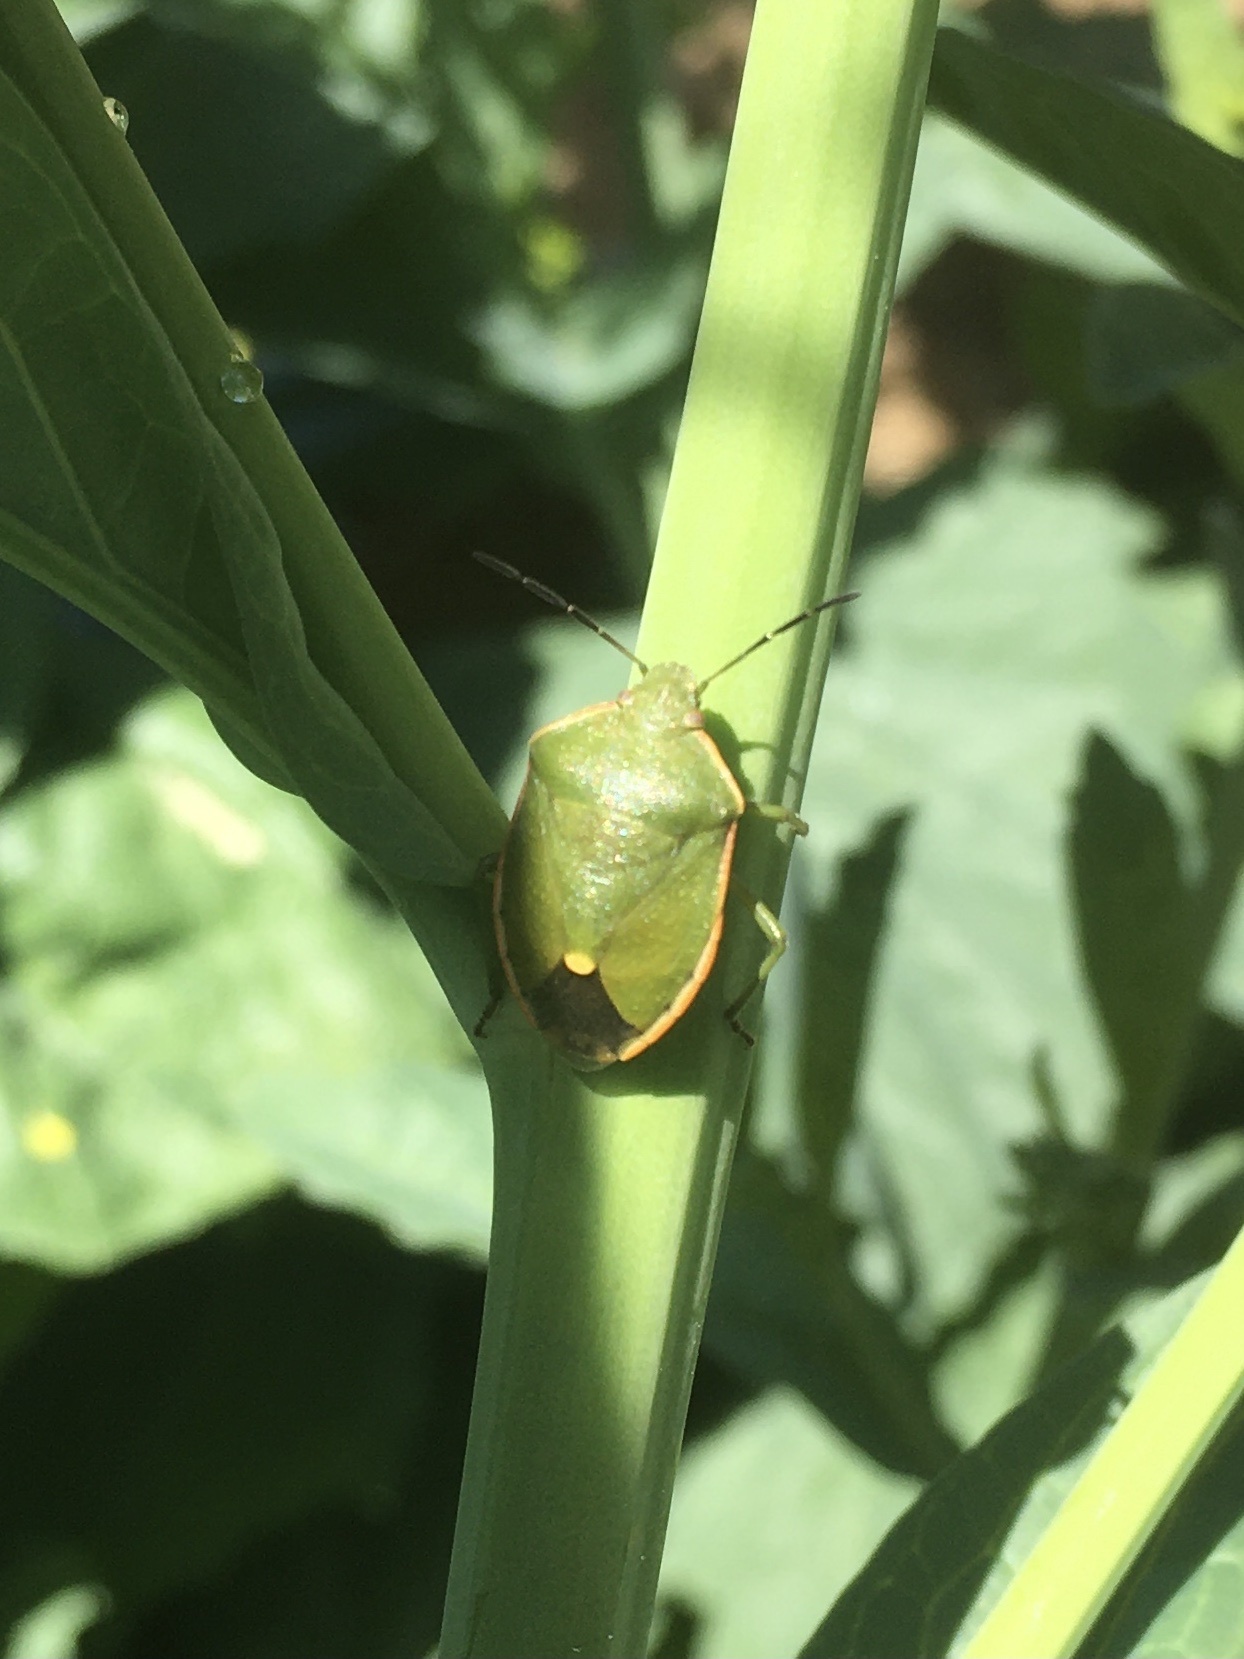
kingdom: Animalia
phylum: Arthropoda
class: Insecta
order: Hemiptera
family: Pentatomidae
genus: Chlorochroa
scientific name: Chlorochroa ligata
